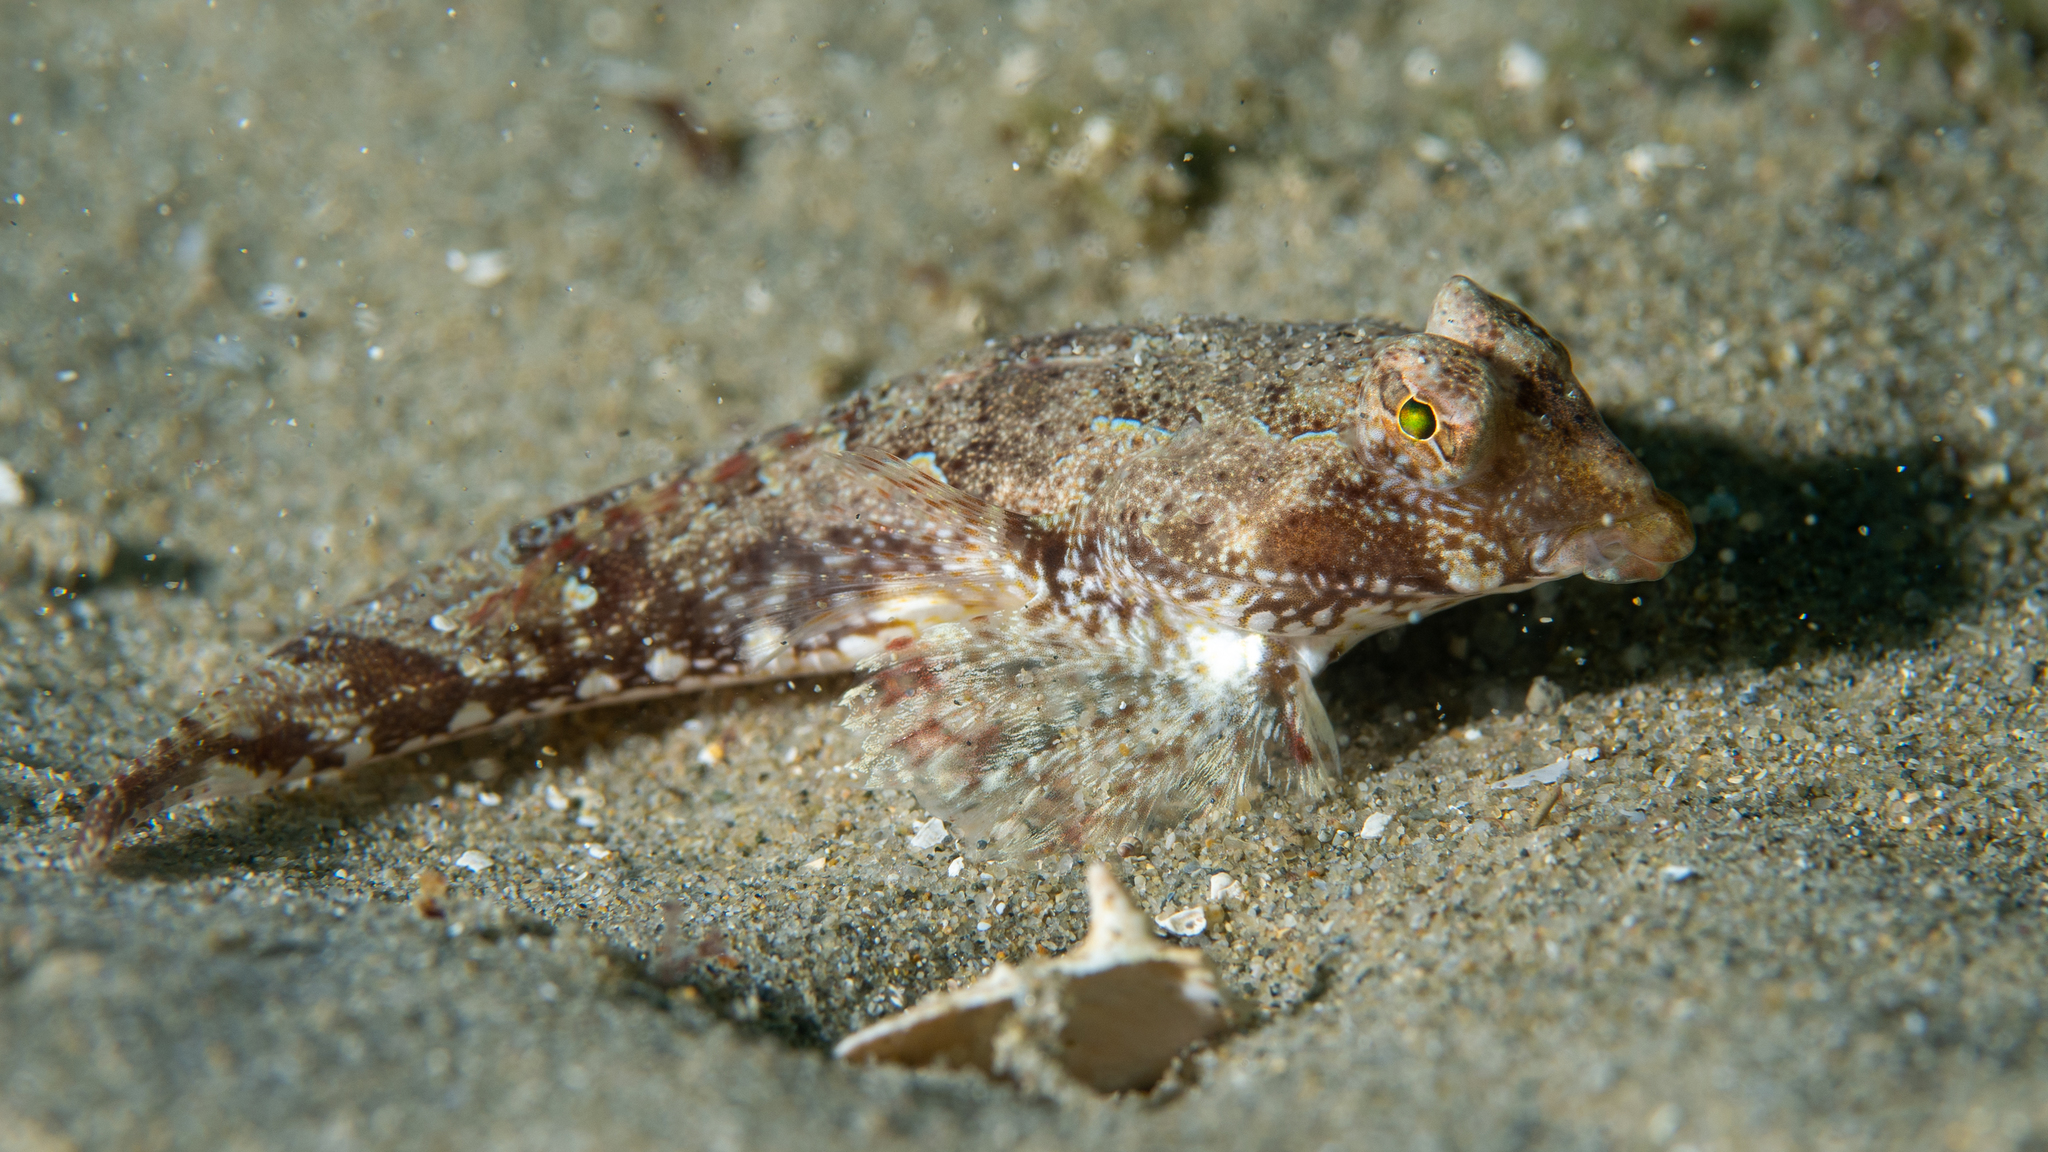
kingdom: Animalia
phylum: Chordata
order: Perciformes
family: Callionymidae
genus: Synchiropus
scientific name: Synchiropus papilio
